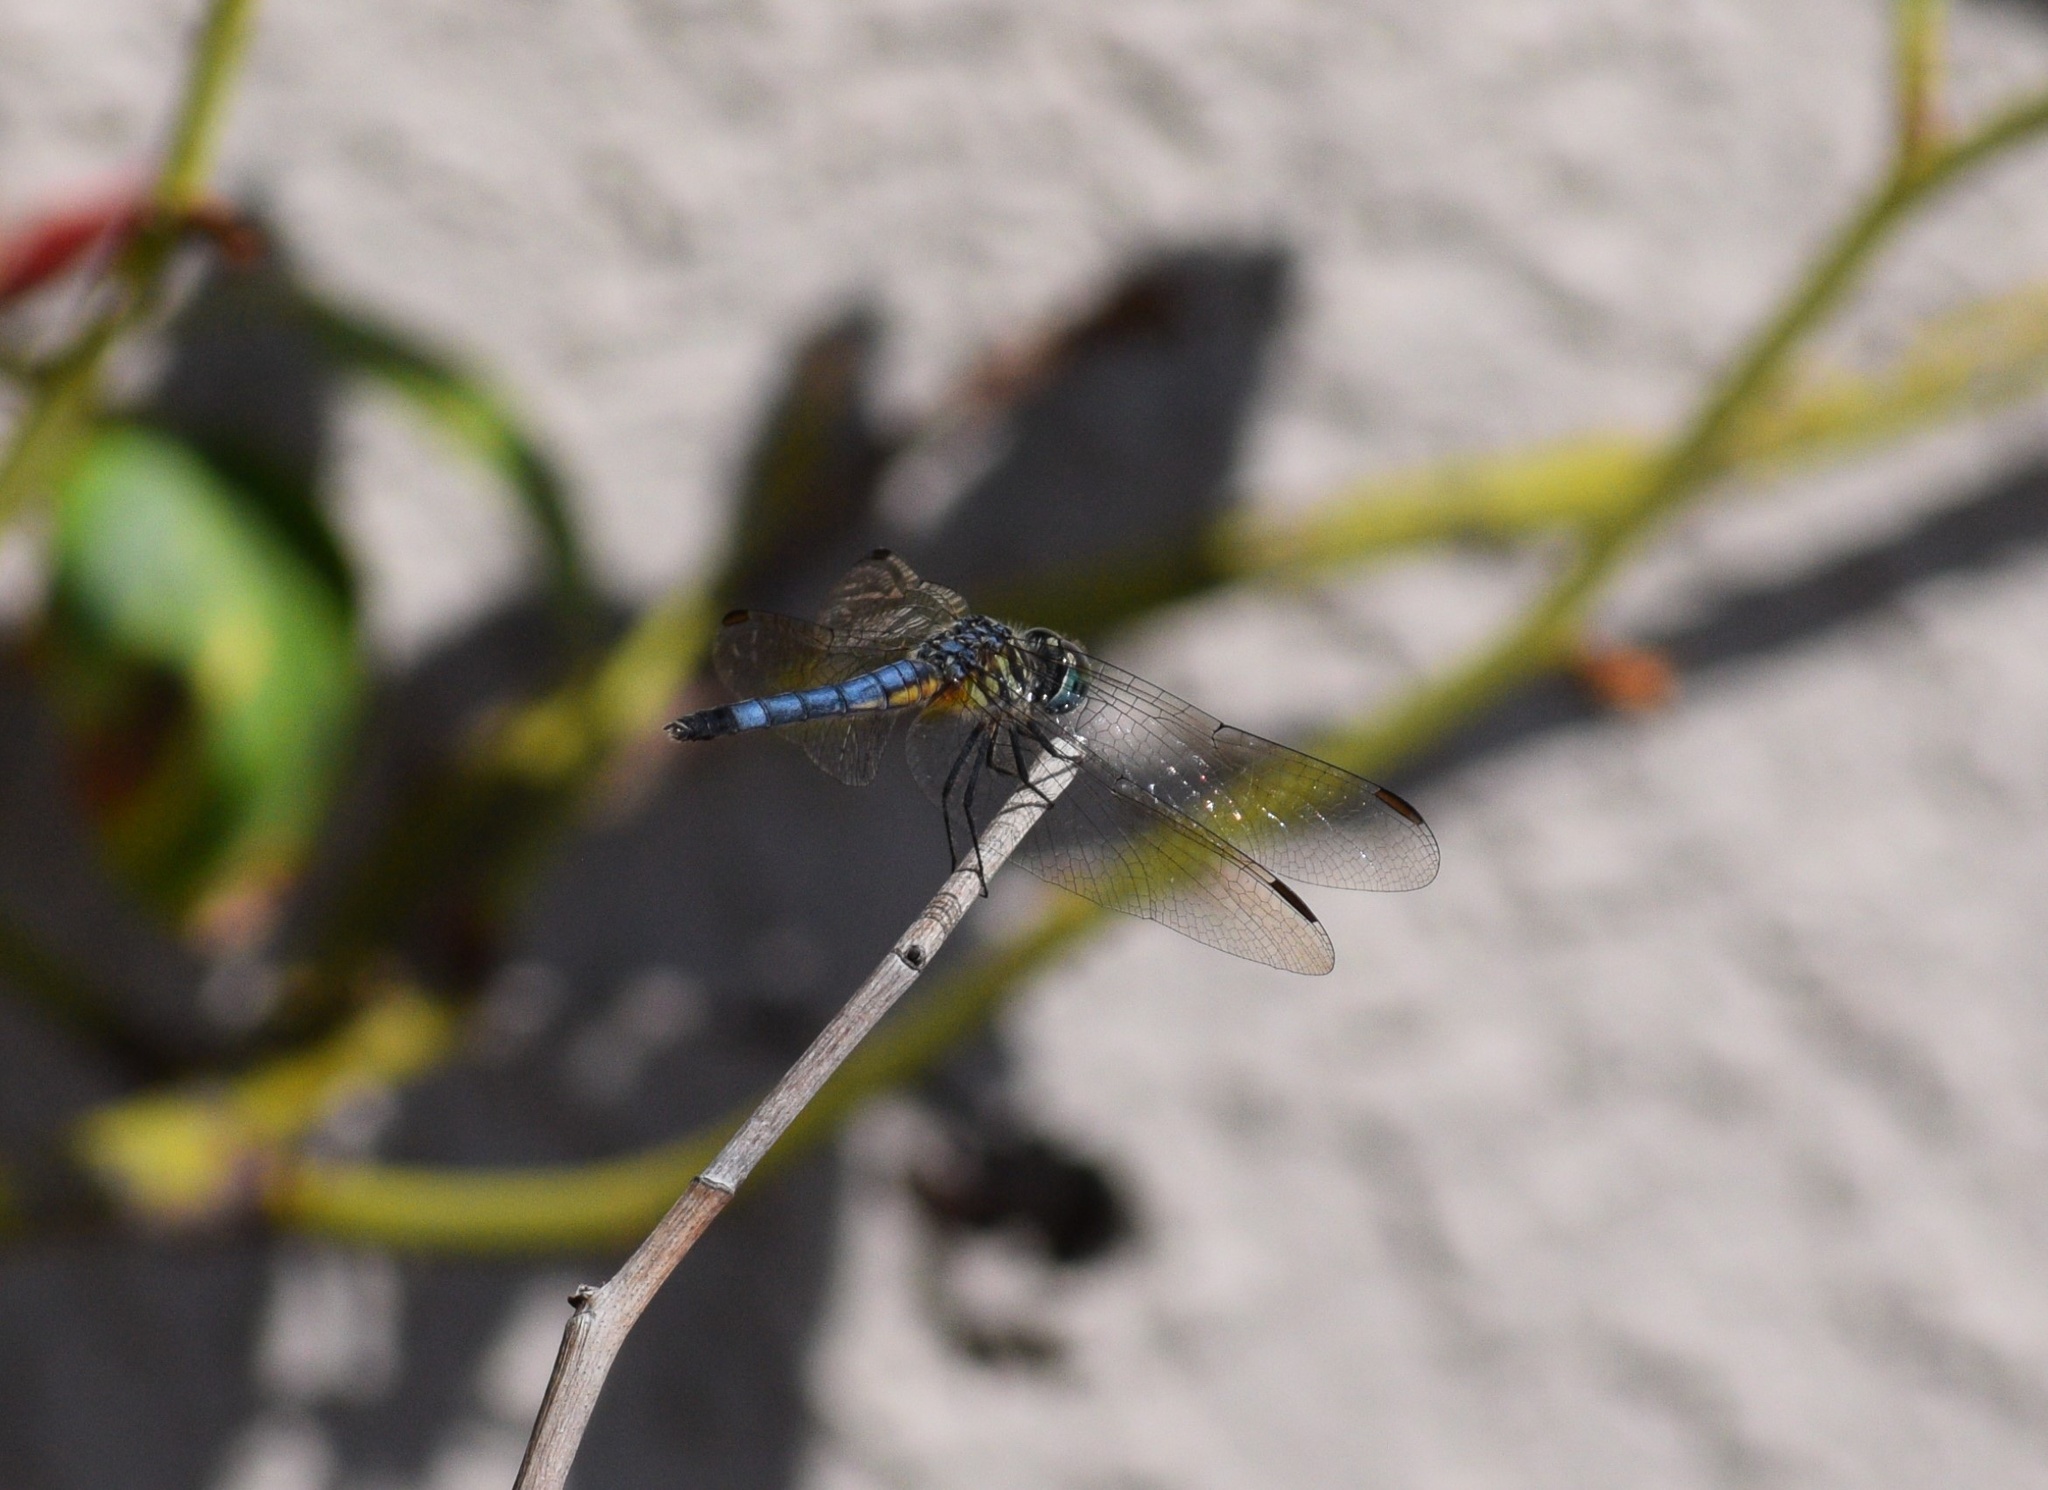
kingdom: Animalia
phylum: Arthropoda
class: Insecta
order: Odonata
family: Libellulidae
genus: Pachydiplax
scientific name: Pachydiplax longipennis
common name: Blue dasher
